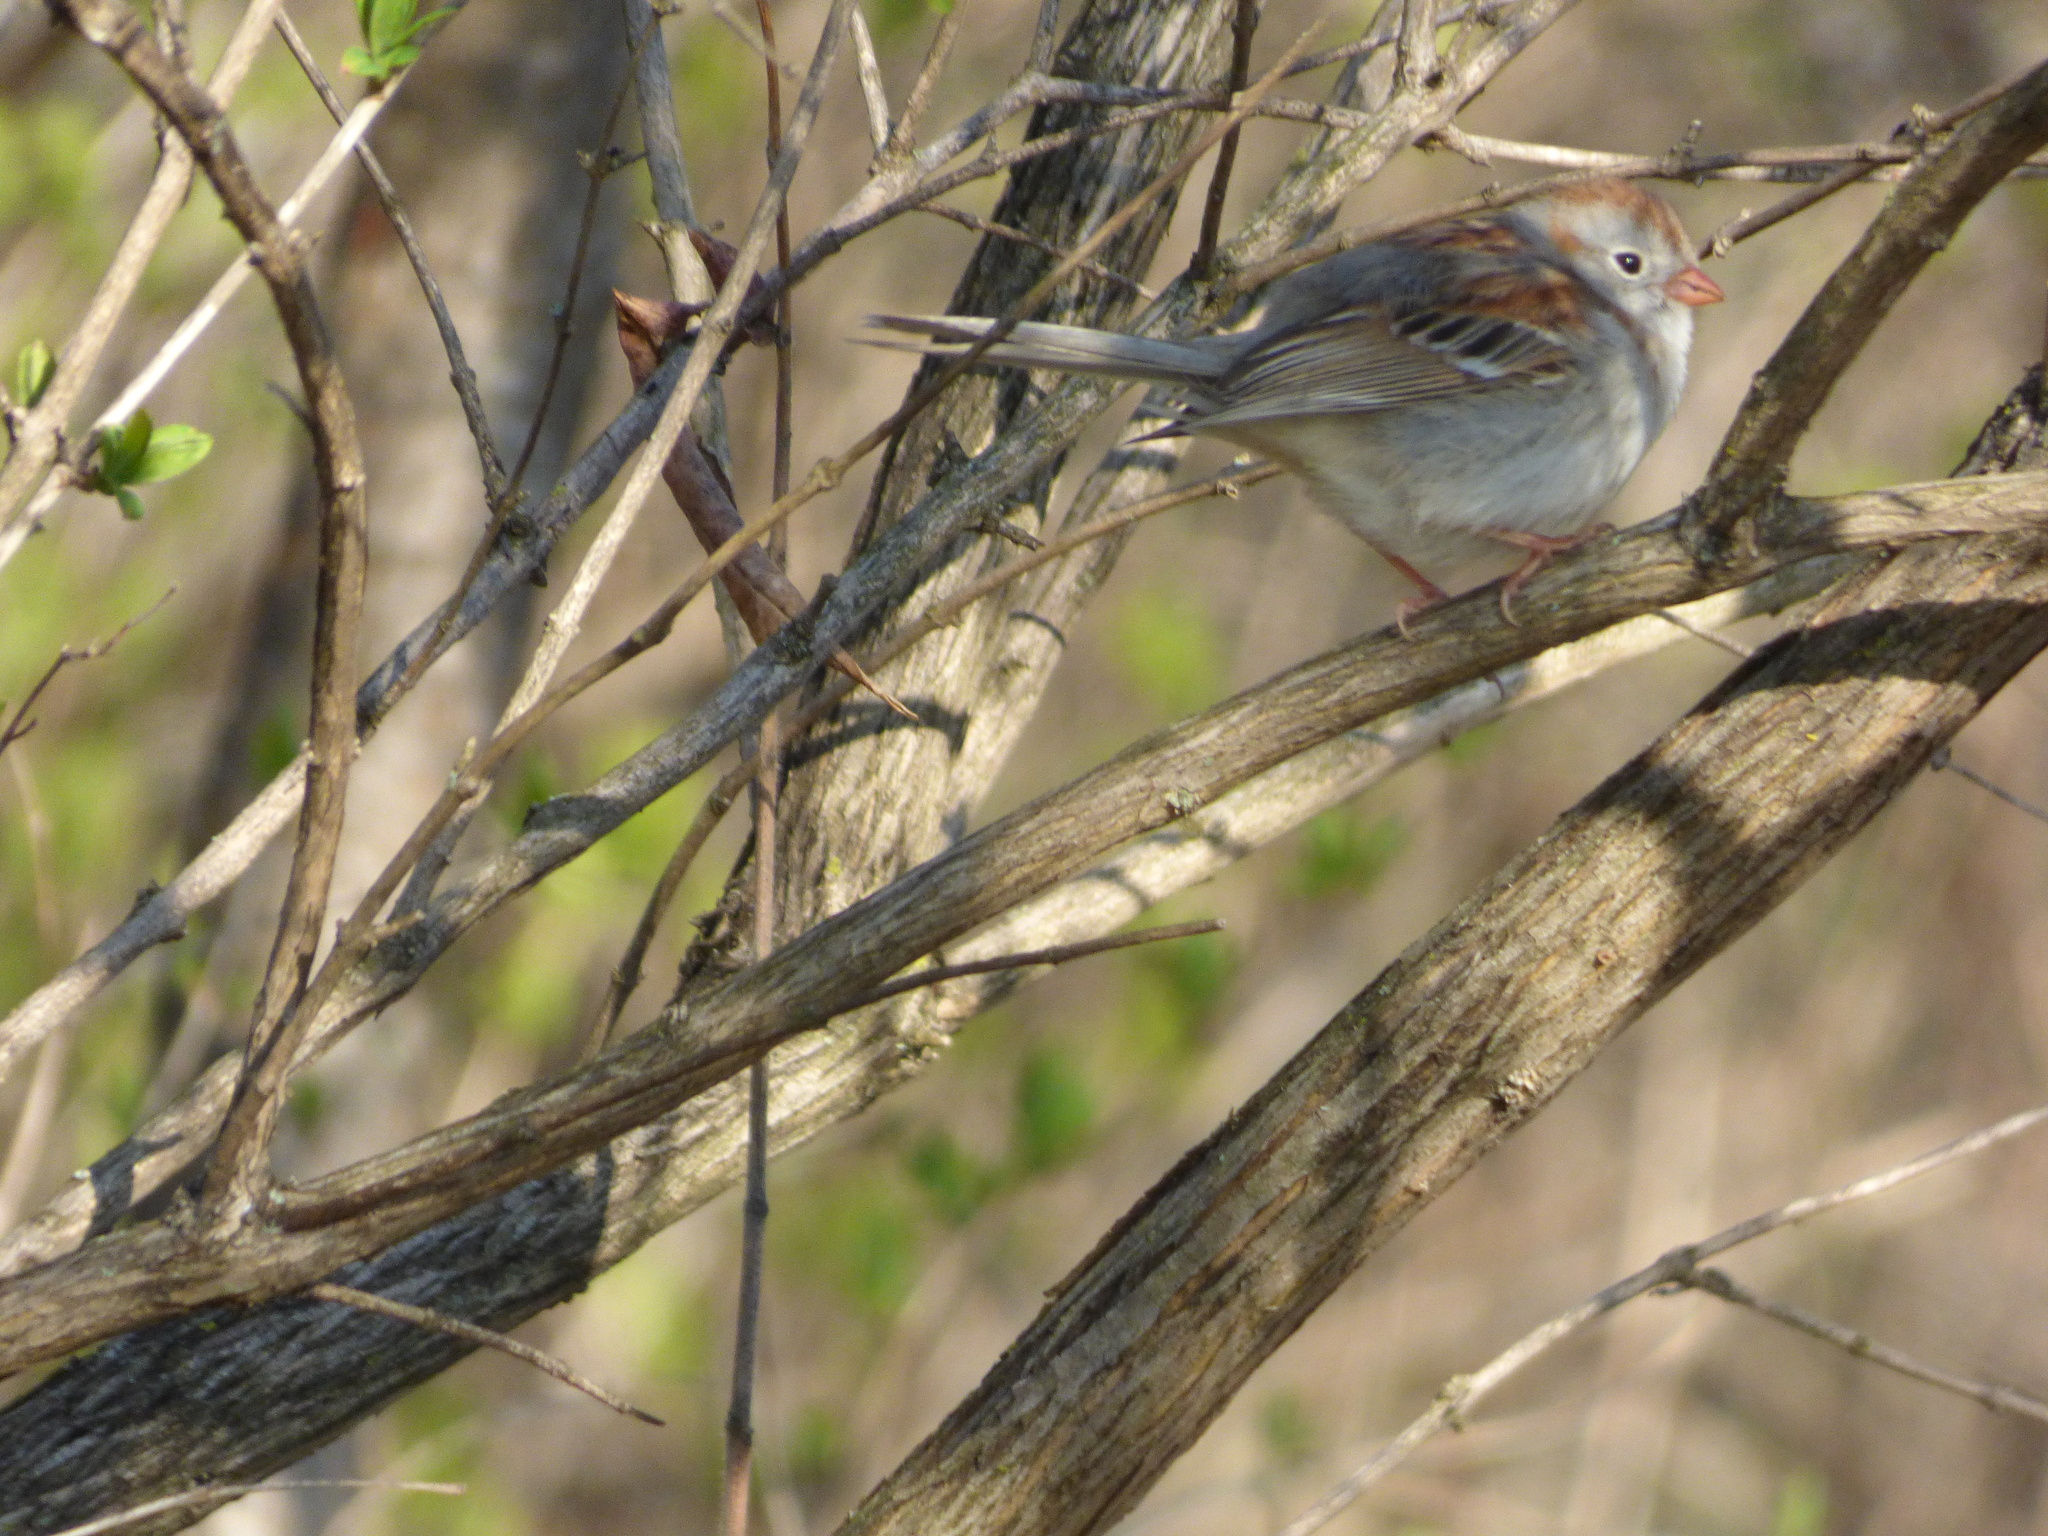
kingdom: Animalia
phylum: Chordata
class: Aves
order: Passeriformes
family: Passerellidae
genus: Spizella
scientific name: Spizella pusilla
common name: Field sparrow
